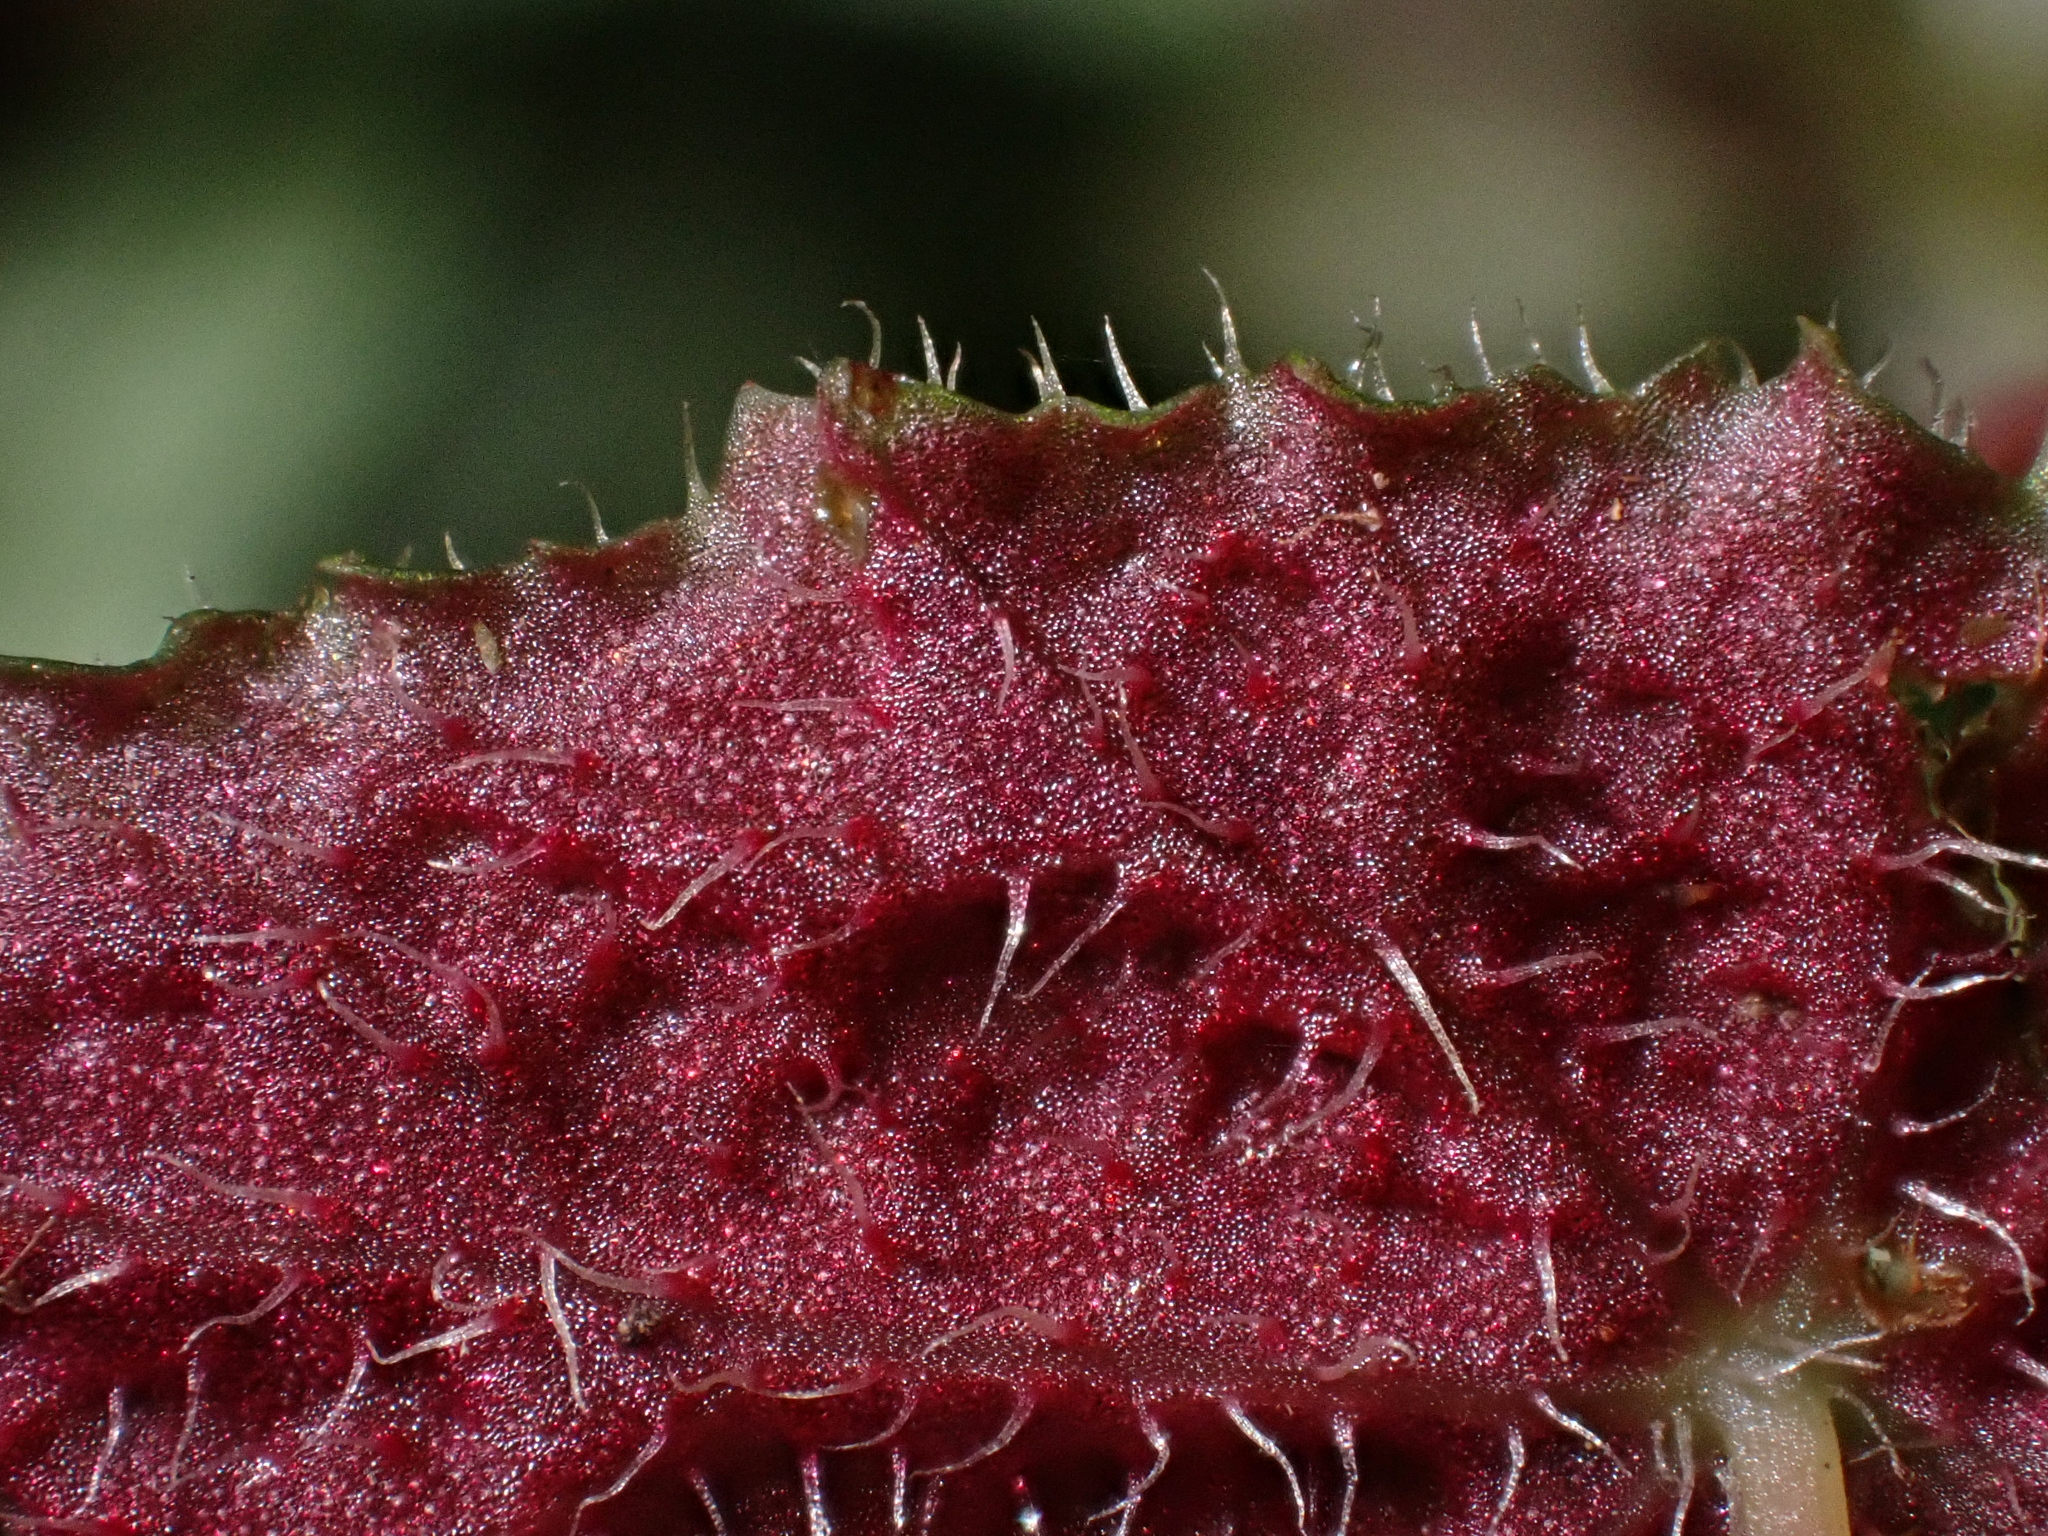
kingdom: Plantae
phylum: Tracheophyta
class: Magnoliopsida
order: Cucurbitales
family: Begoniaceae
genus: Begonia
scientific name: Begonia segregata
